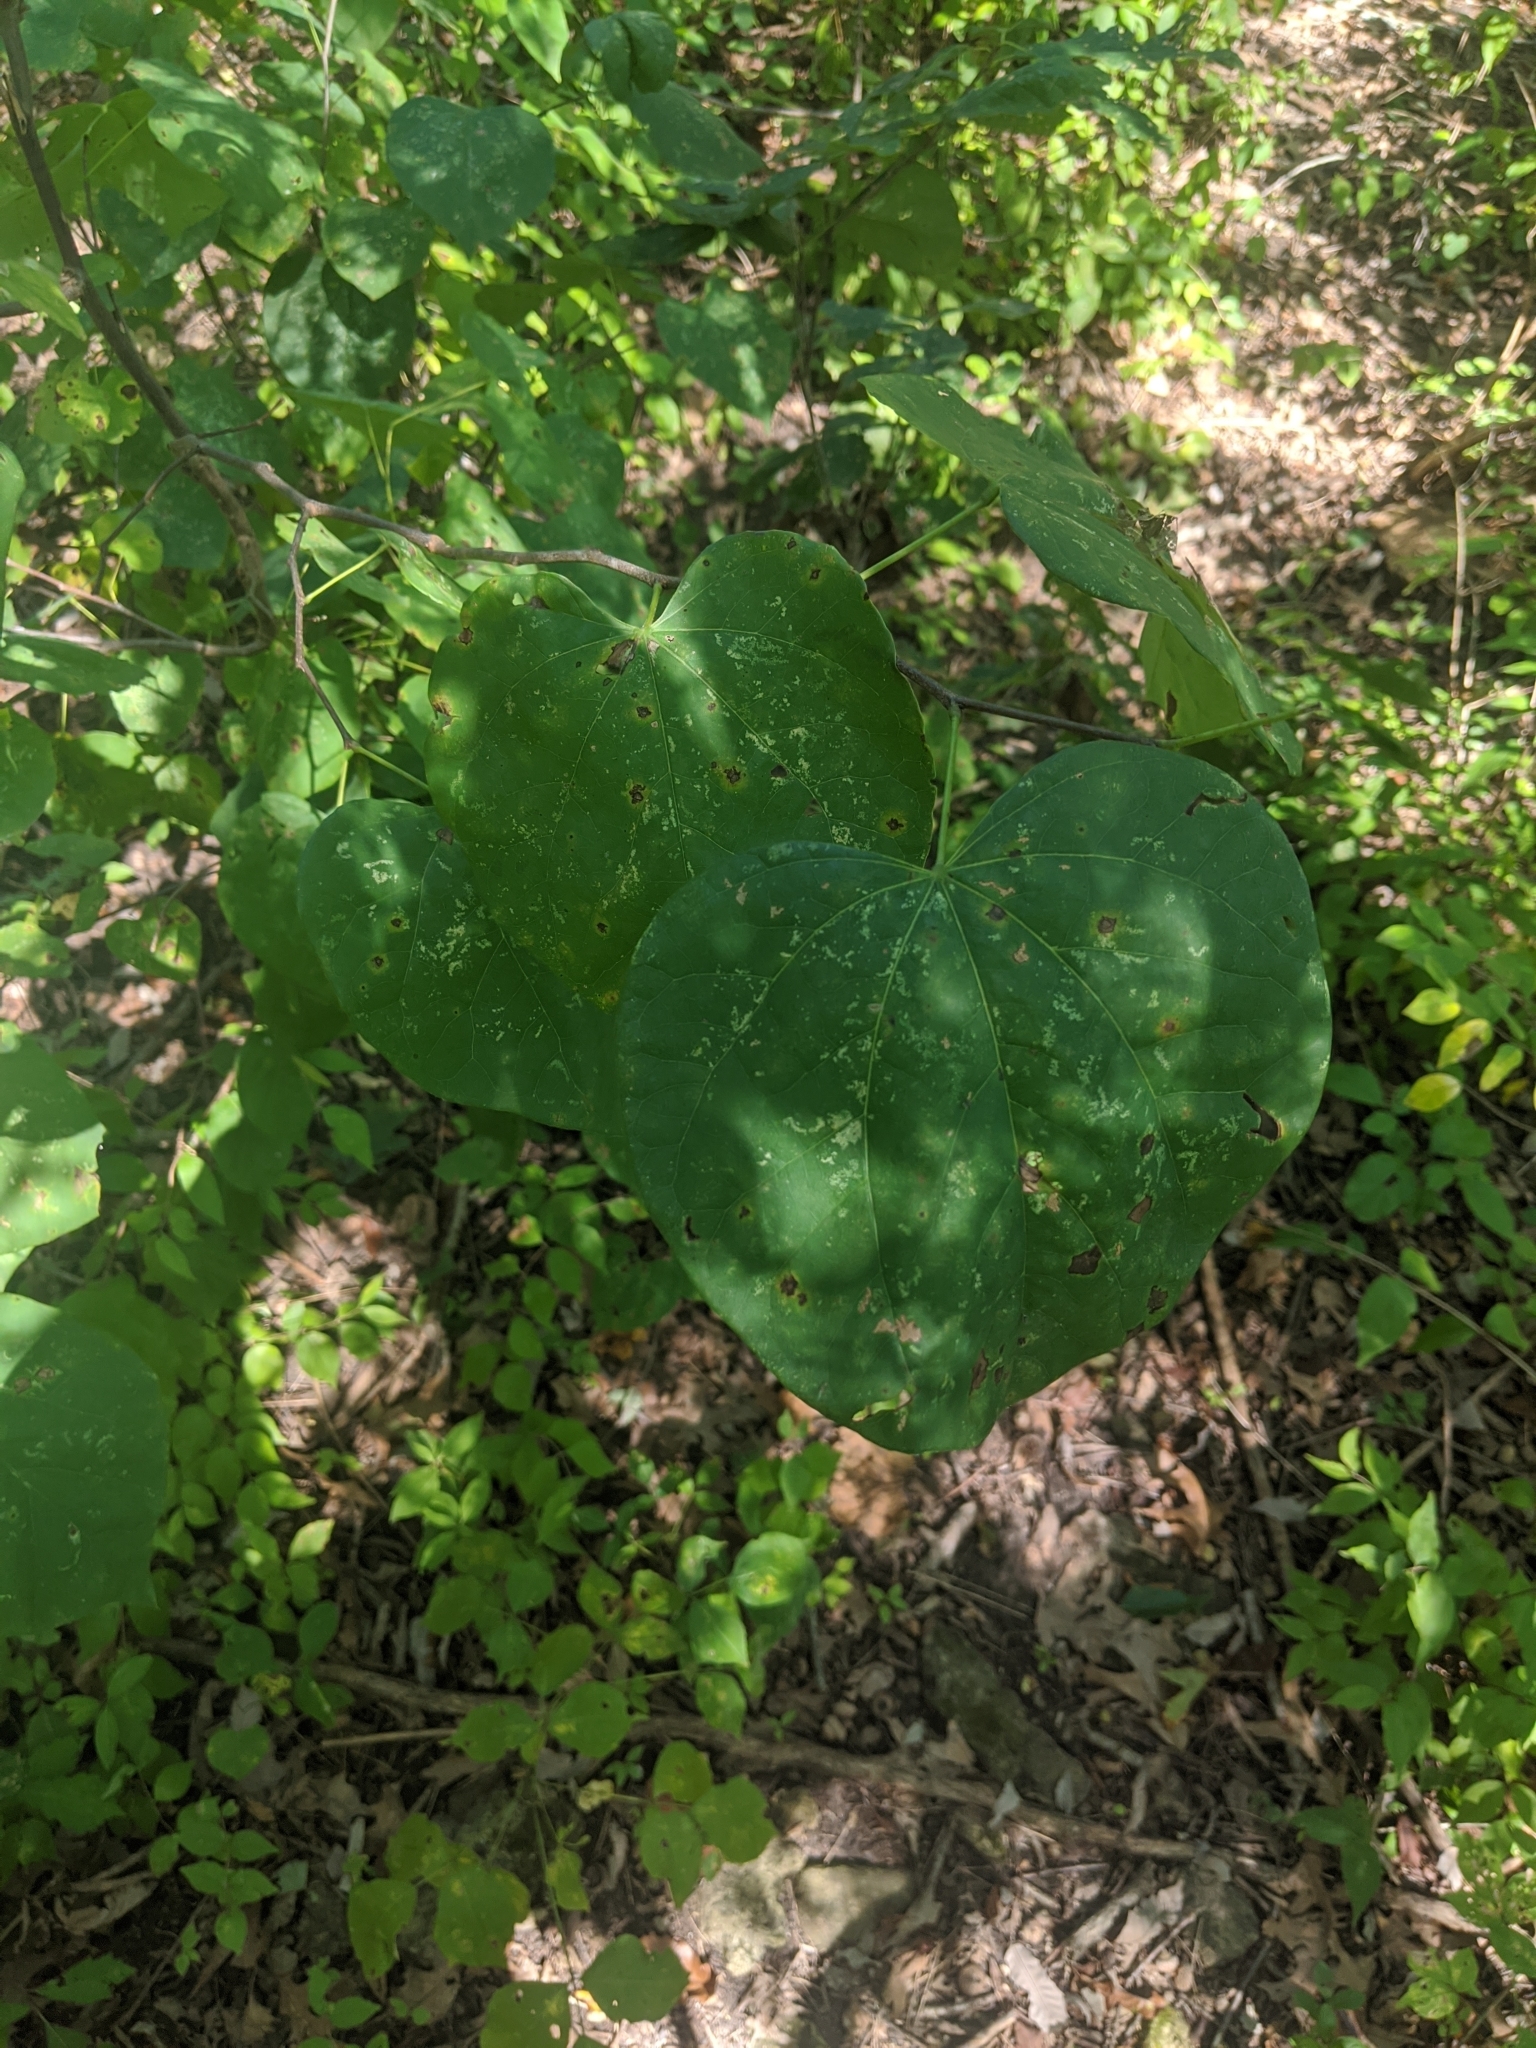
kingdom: Plantae
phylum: Tracheophyta
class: Magnoliopsida
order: Fabales
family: Fabaceae
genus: Cercis
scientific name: Cercis canadensis
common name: Eastern redbud
